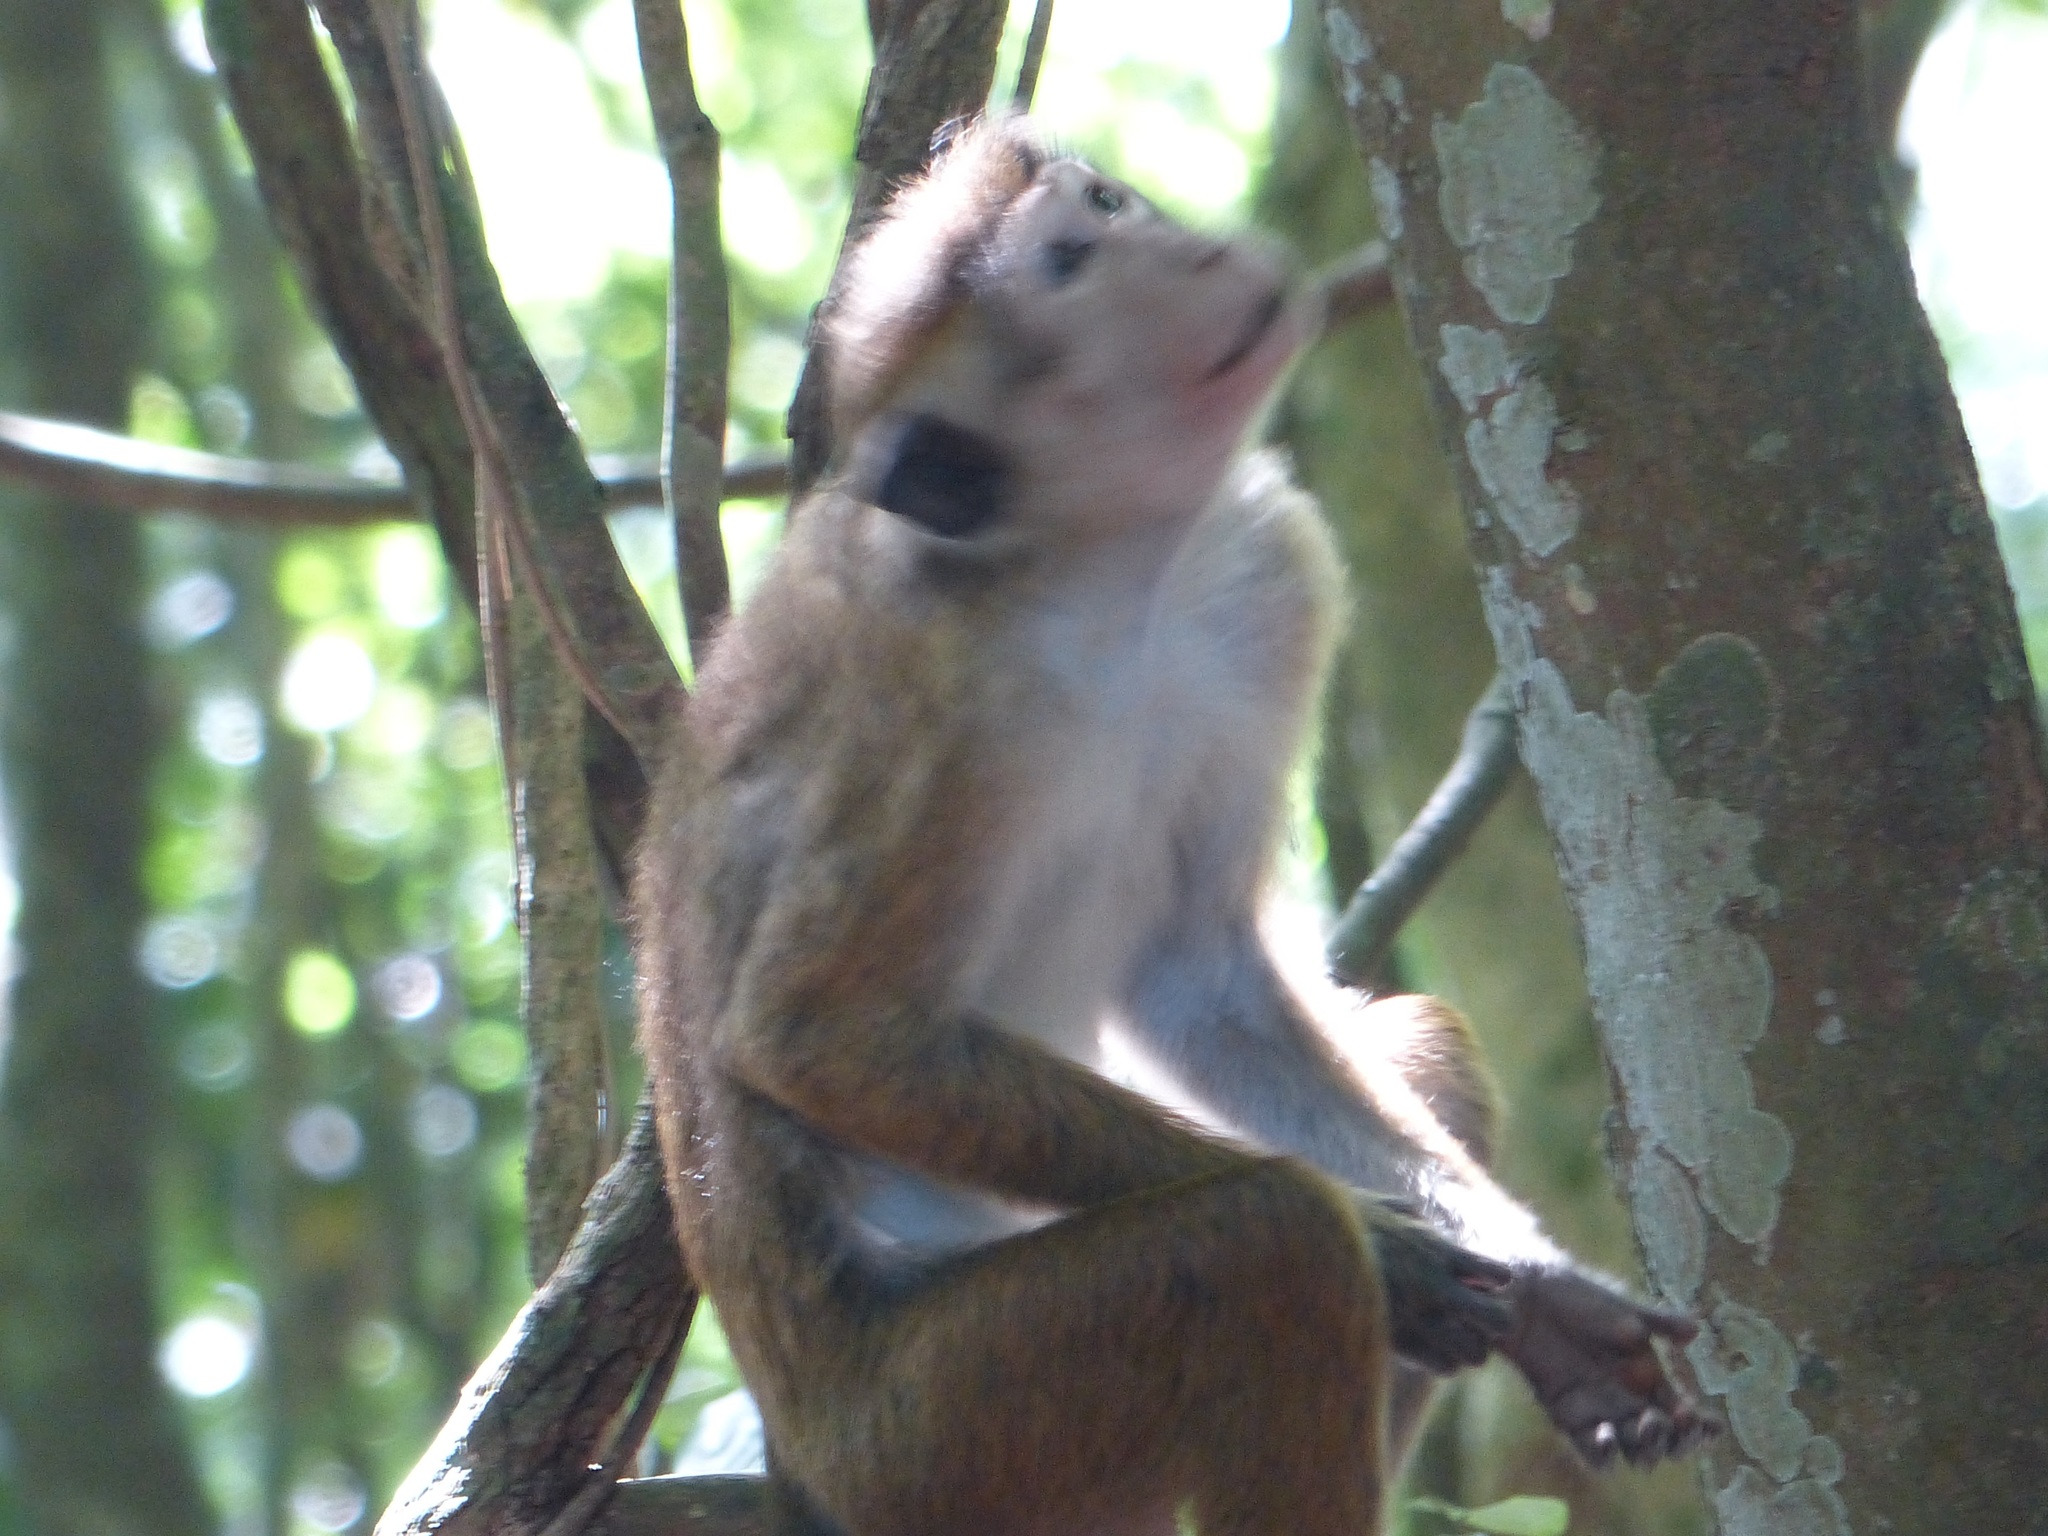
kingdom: Animalia
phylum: Chordata
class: Mammalia
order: Primates
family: Cercopithecidae
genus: Macaca
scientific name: Macaca sinica
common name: Toque macaque
